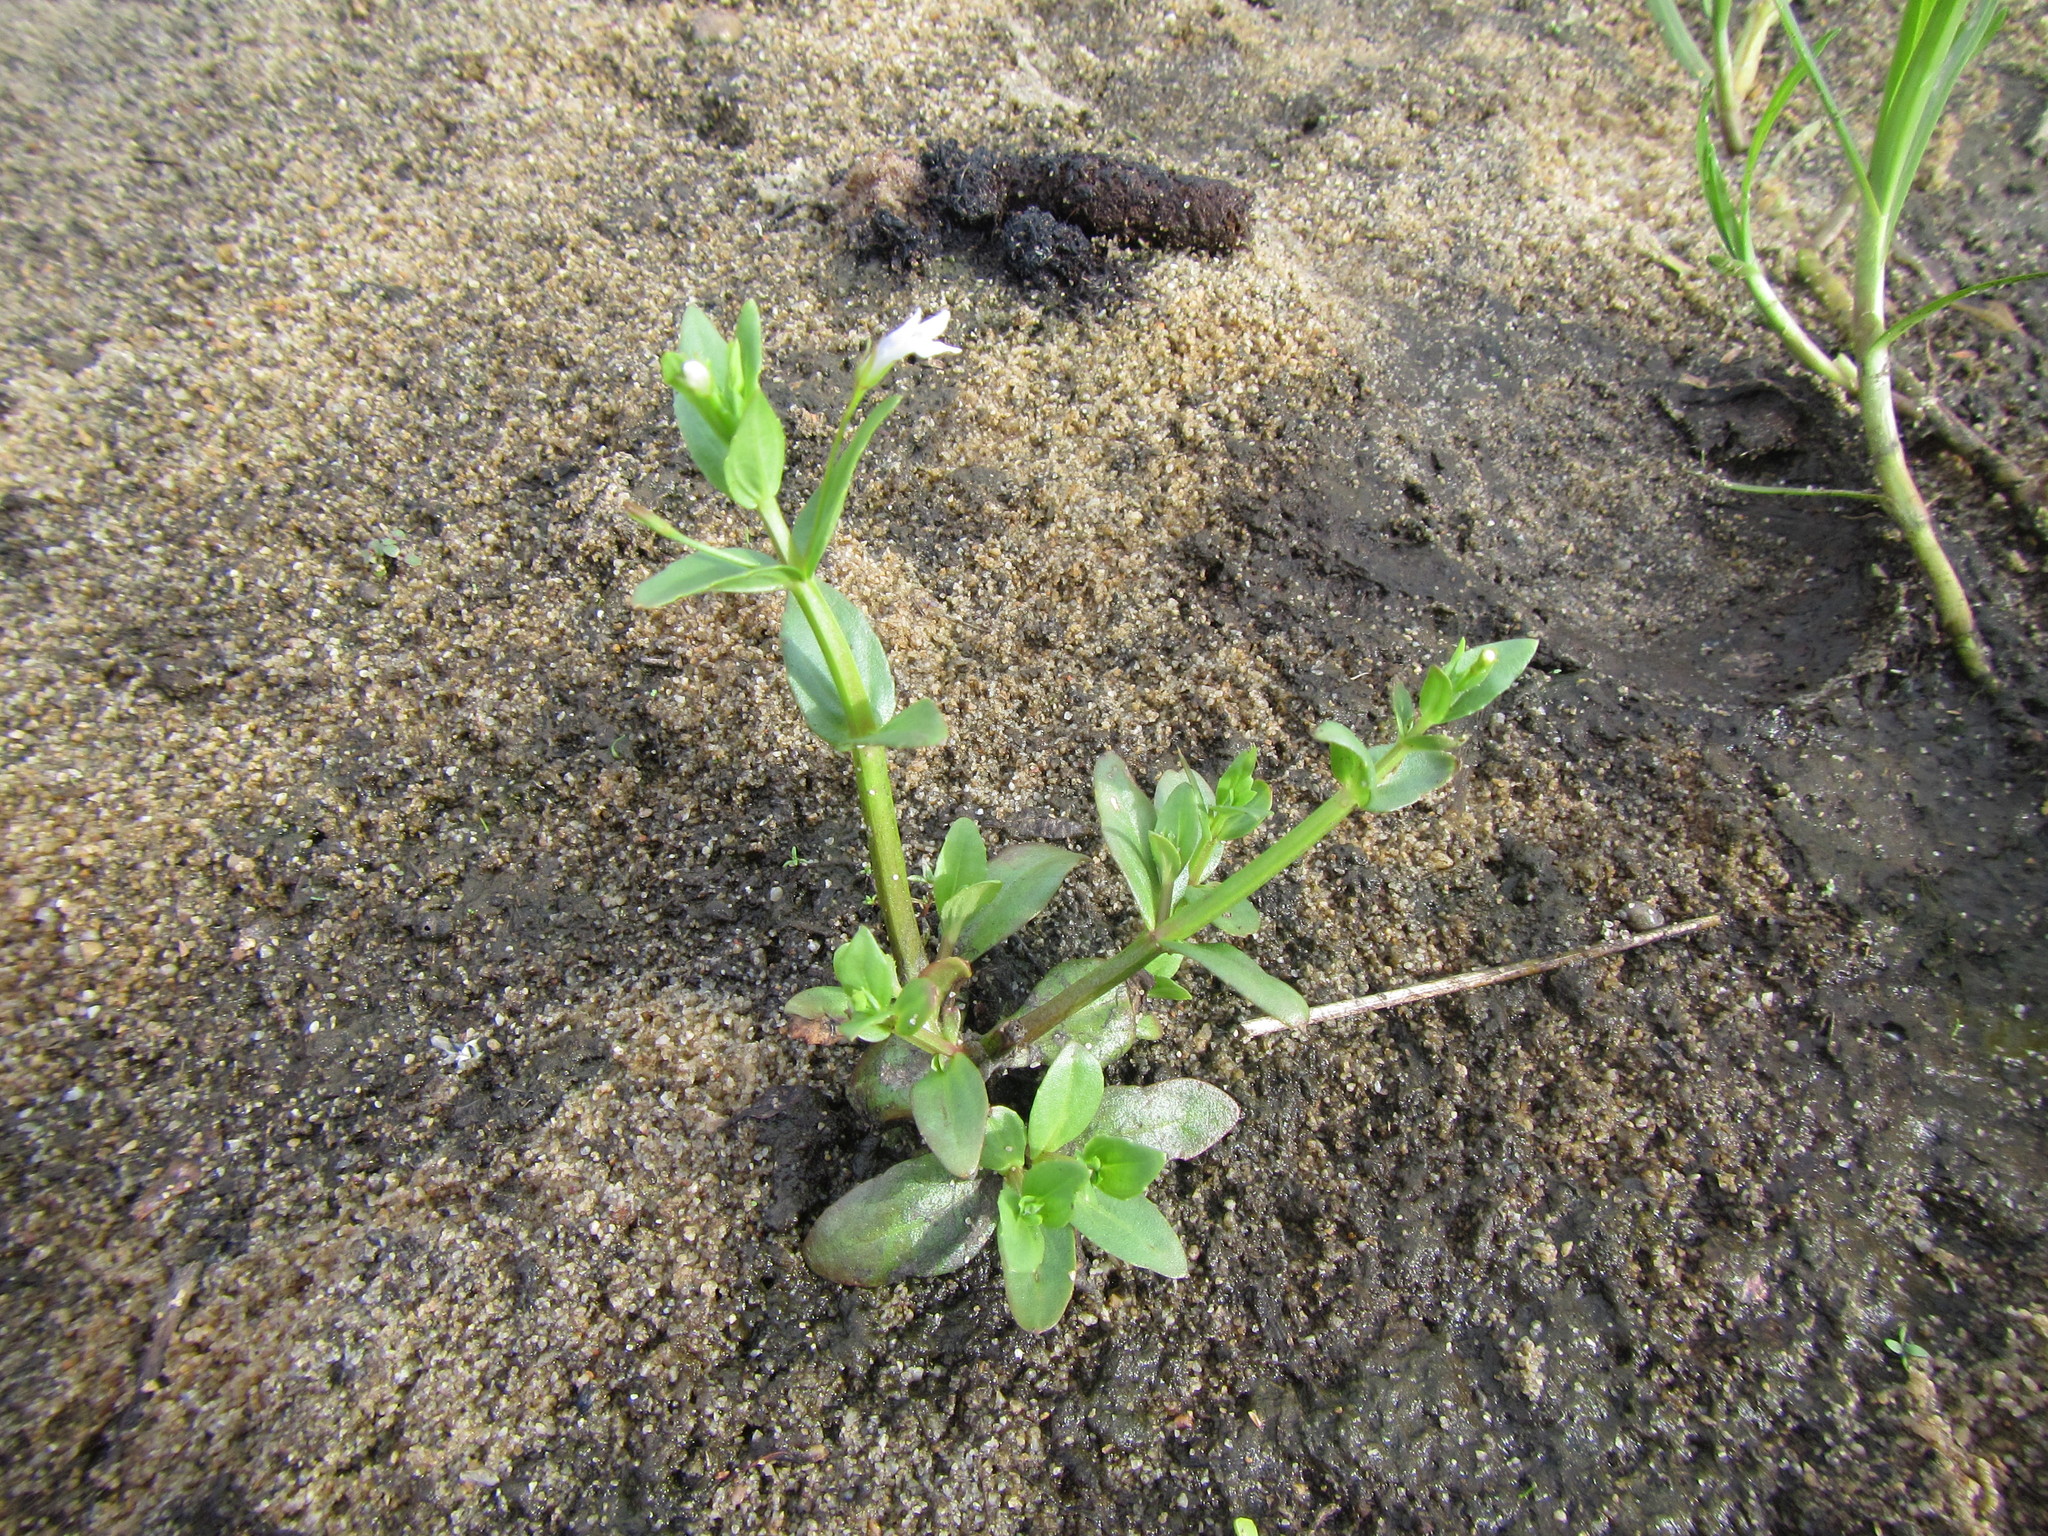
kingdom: Plantae
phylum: Tracheophyta
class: Magnoliopsida
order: Lamiales
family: Linderniaceae
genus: Lindernia
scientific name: Lindernia parviflora
